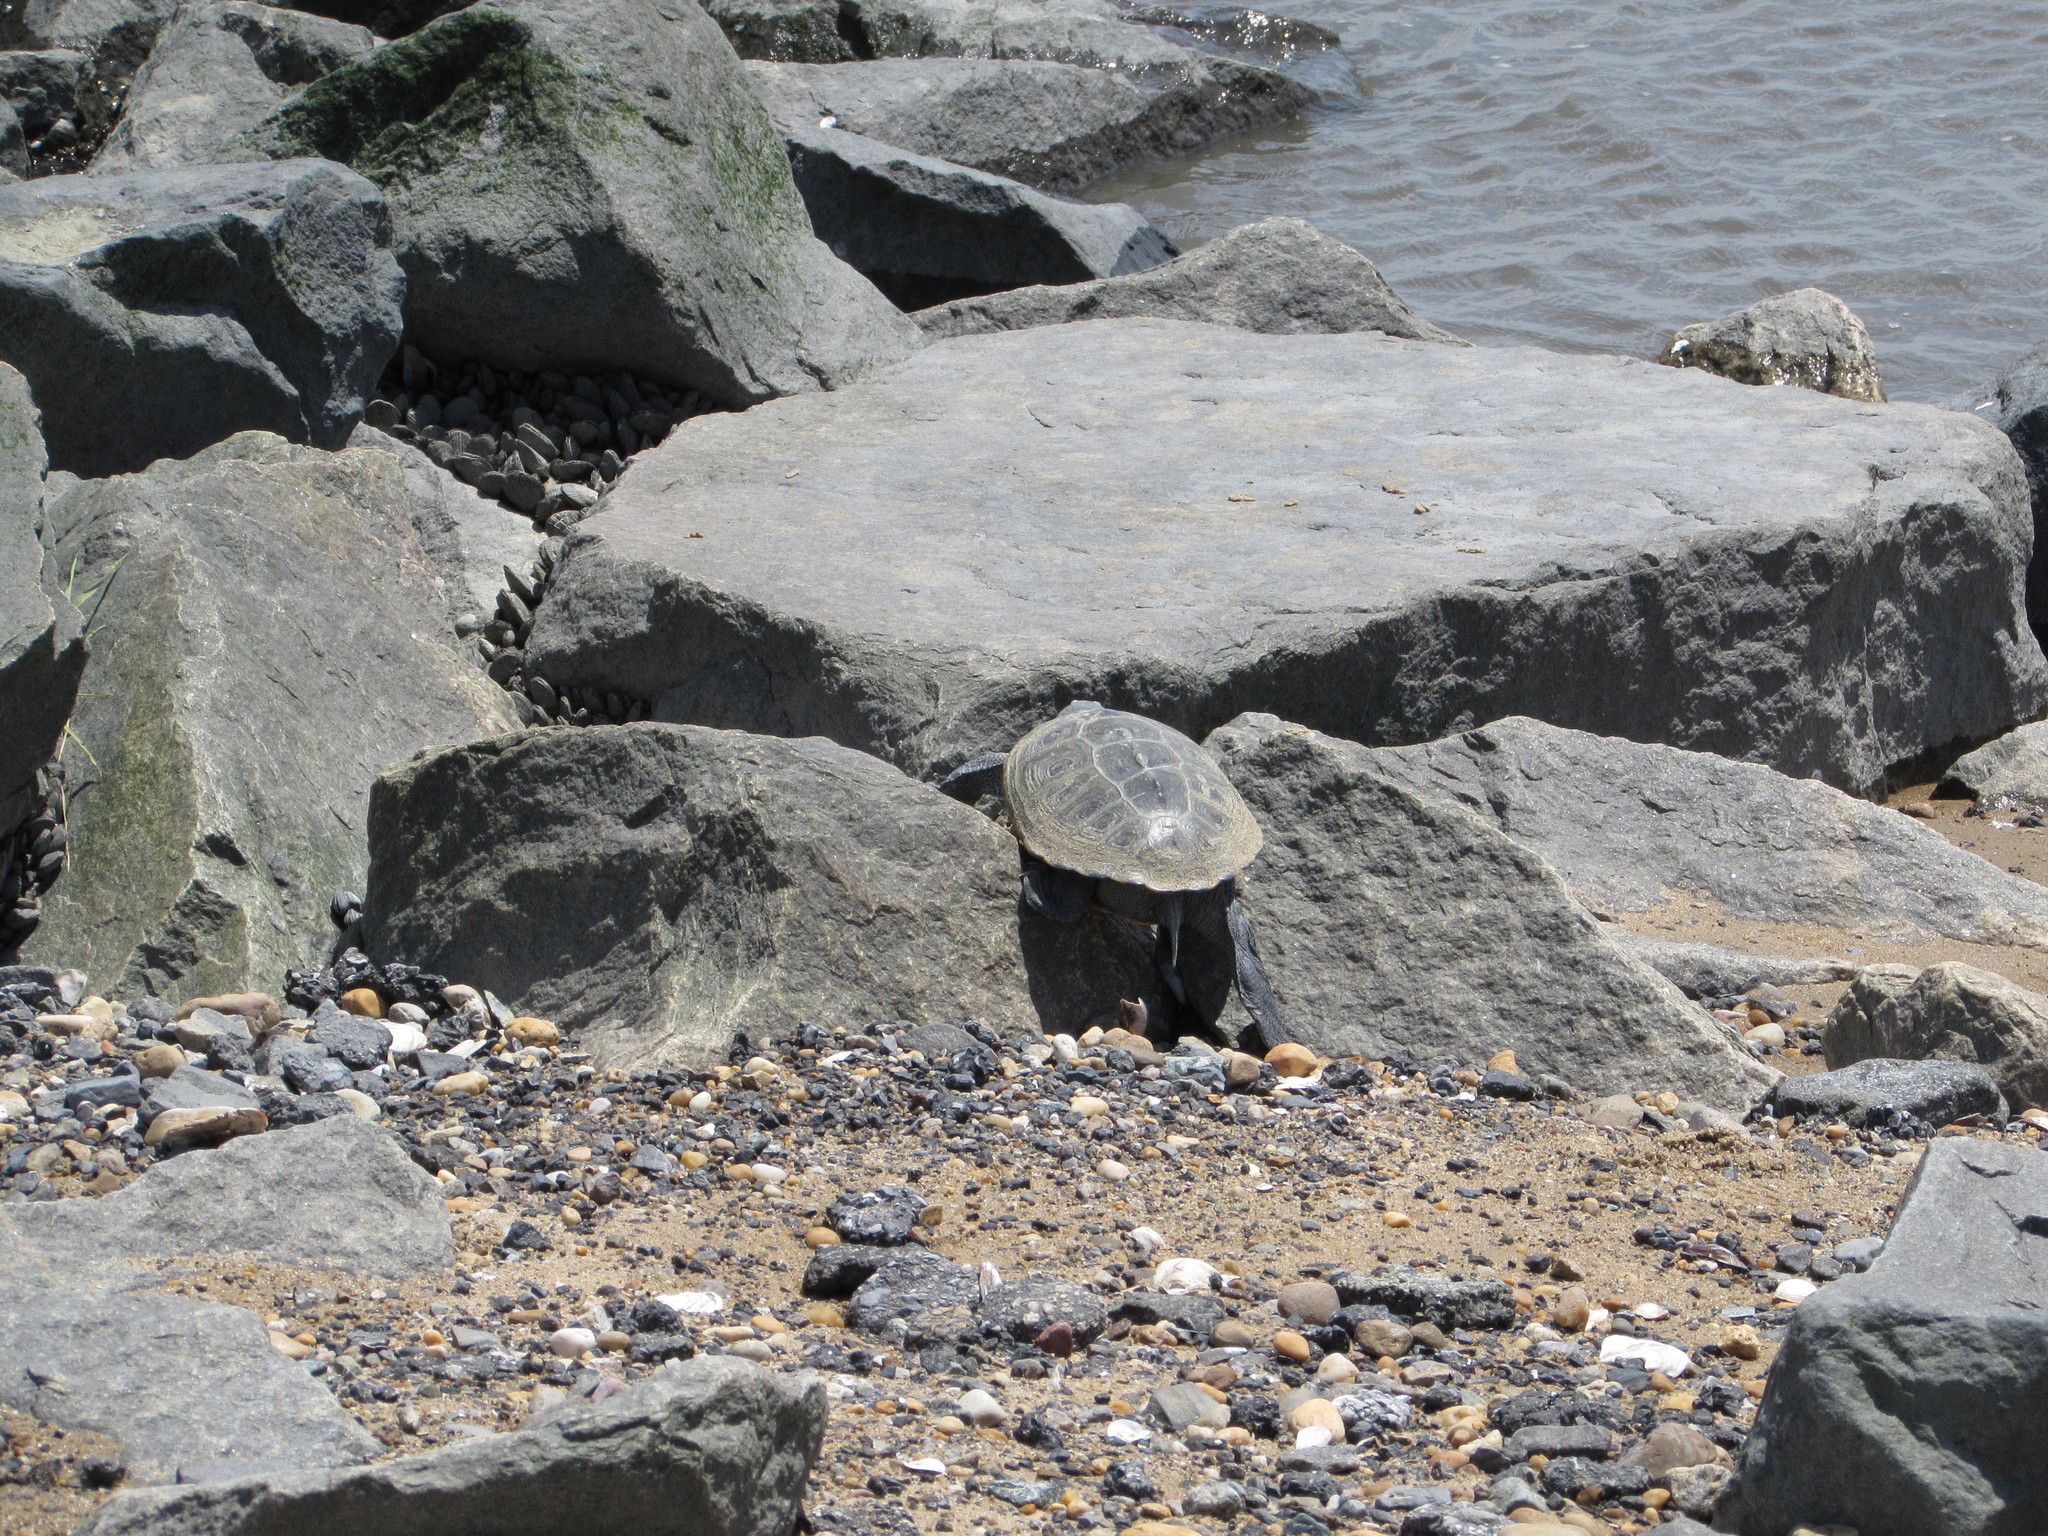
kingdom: Animalia
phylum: Chordata
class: Testudines
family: Emydidae
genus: Malaclemys
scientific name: Malaclemys terrapin
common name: Diamondback terrapin
